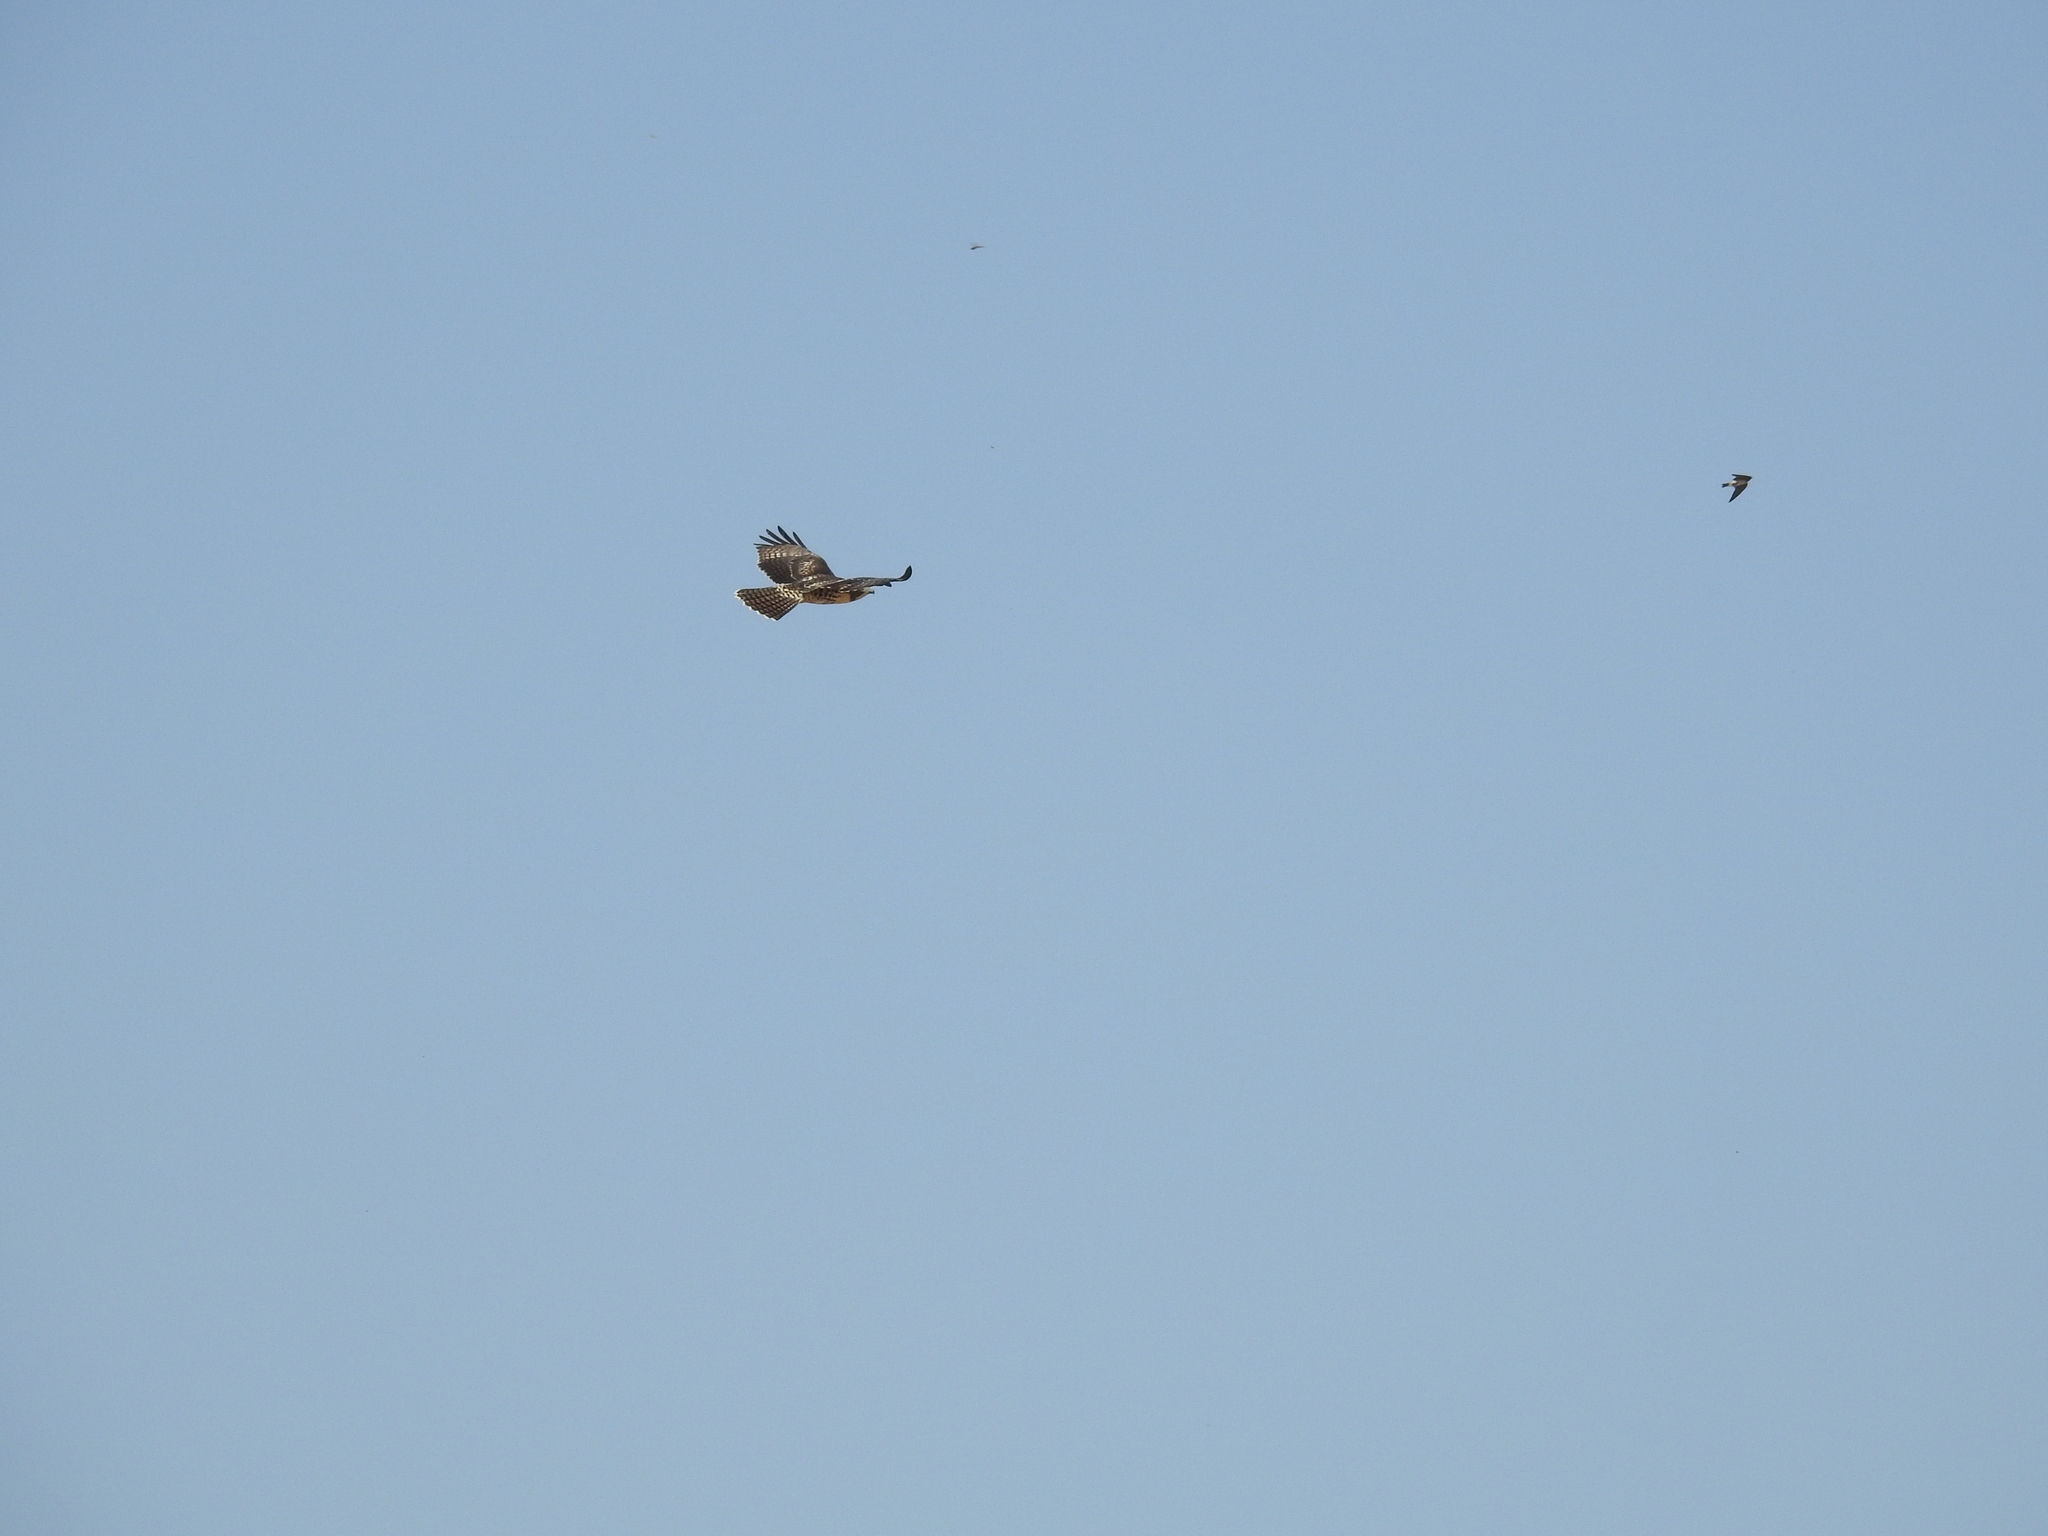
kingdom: Animalia
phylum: Chordata
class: Aves
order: Accipitriformes
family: Accipitridae
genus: Buteo
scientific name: Buteo jamaicensis
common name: Red-tailed hawk
